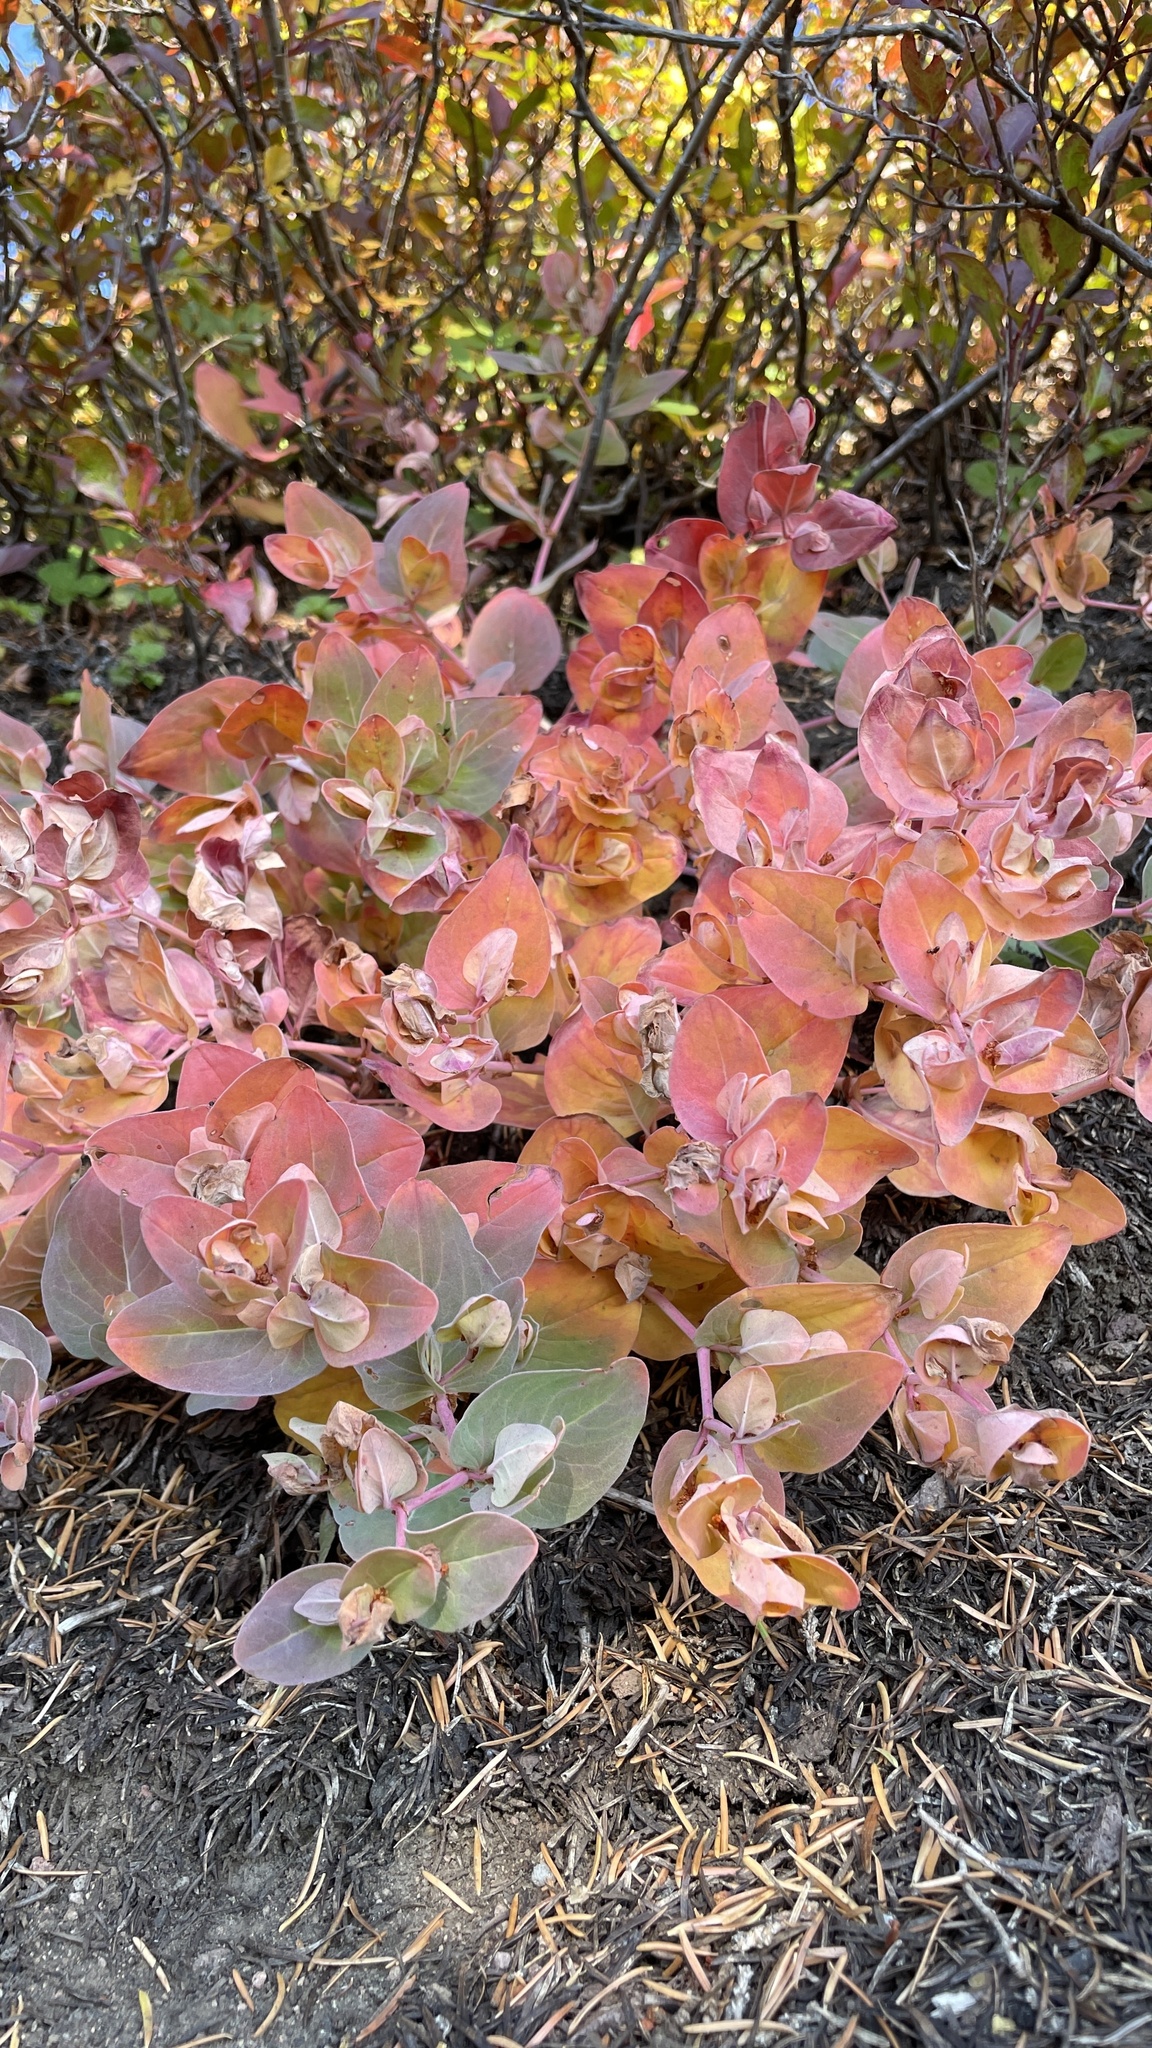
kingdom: Plantae
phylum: Tracheophyta
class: Magnoliopsida
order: Caryophyllales
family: Polygonaceae
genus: Koenigia
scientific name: Koenigia davisiae
